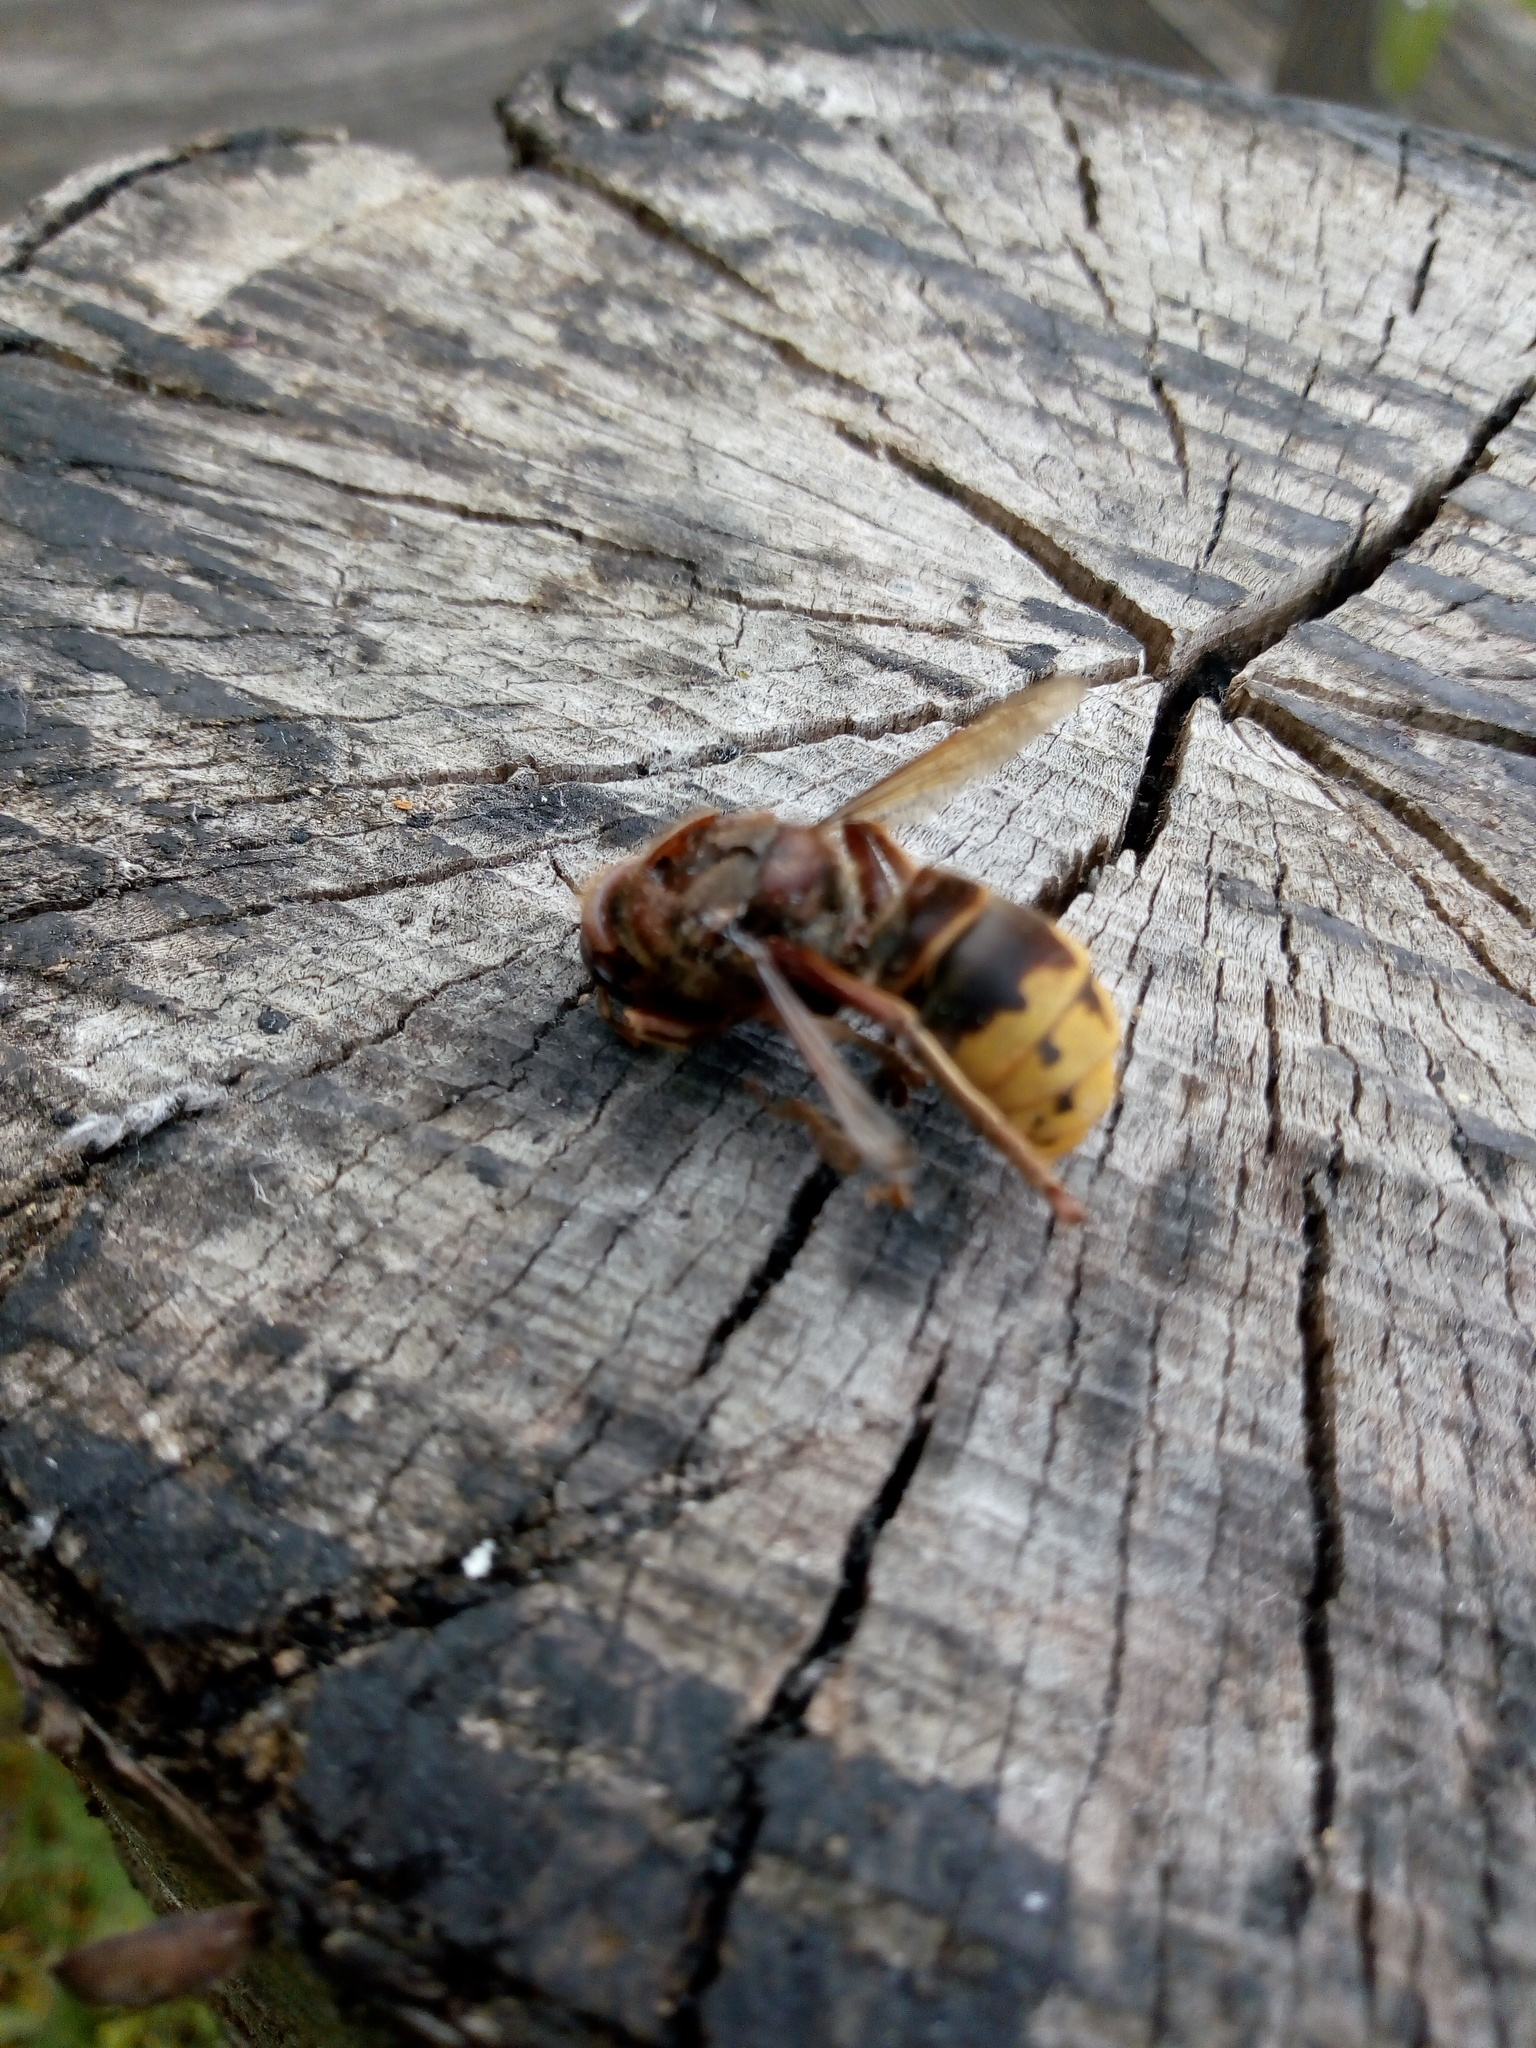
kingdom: Animalia
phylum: Arthropoda
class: Insecta
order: Hymenoptera
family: Vespidae
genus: Vespa
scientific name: Vespa crabro
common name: Hornet
